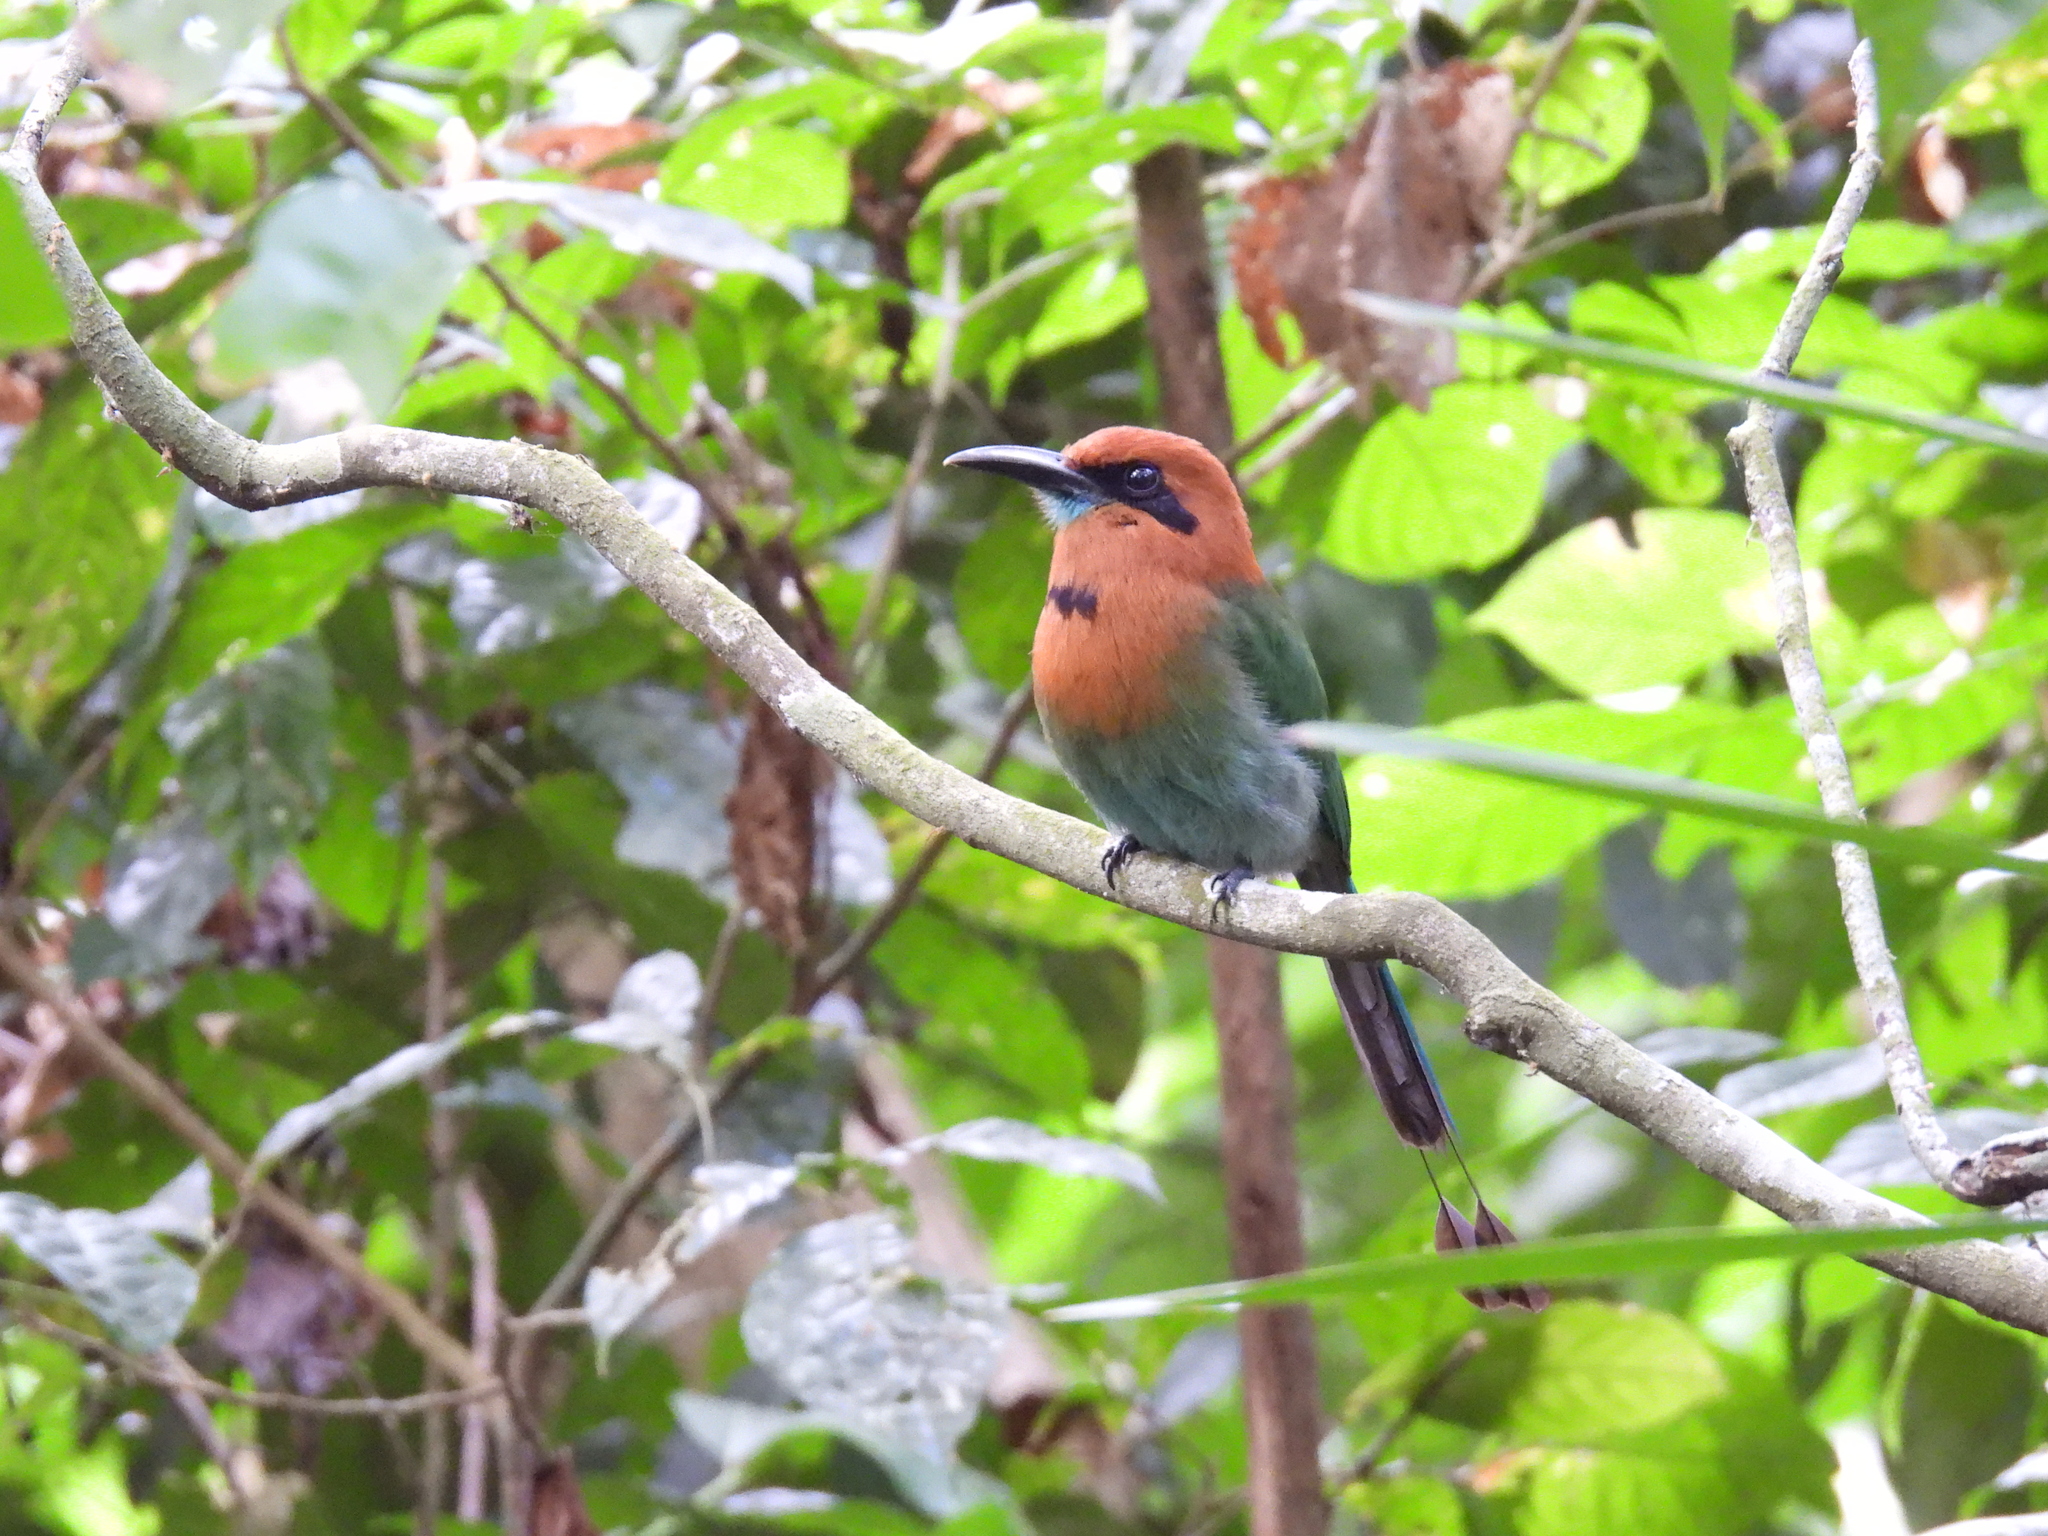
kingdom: Animalia
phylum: Chordata
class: Aves
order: Coraciiformes
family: Momotidae
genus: Baryphthengus
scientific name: Baryphthengus martii
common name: Rufous motmot
